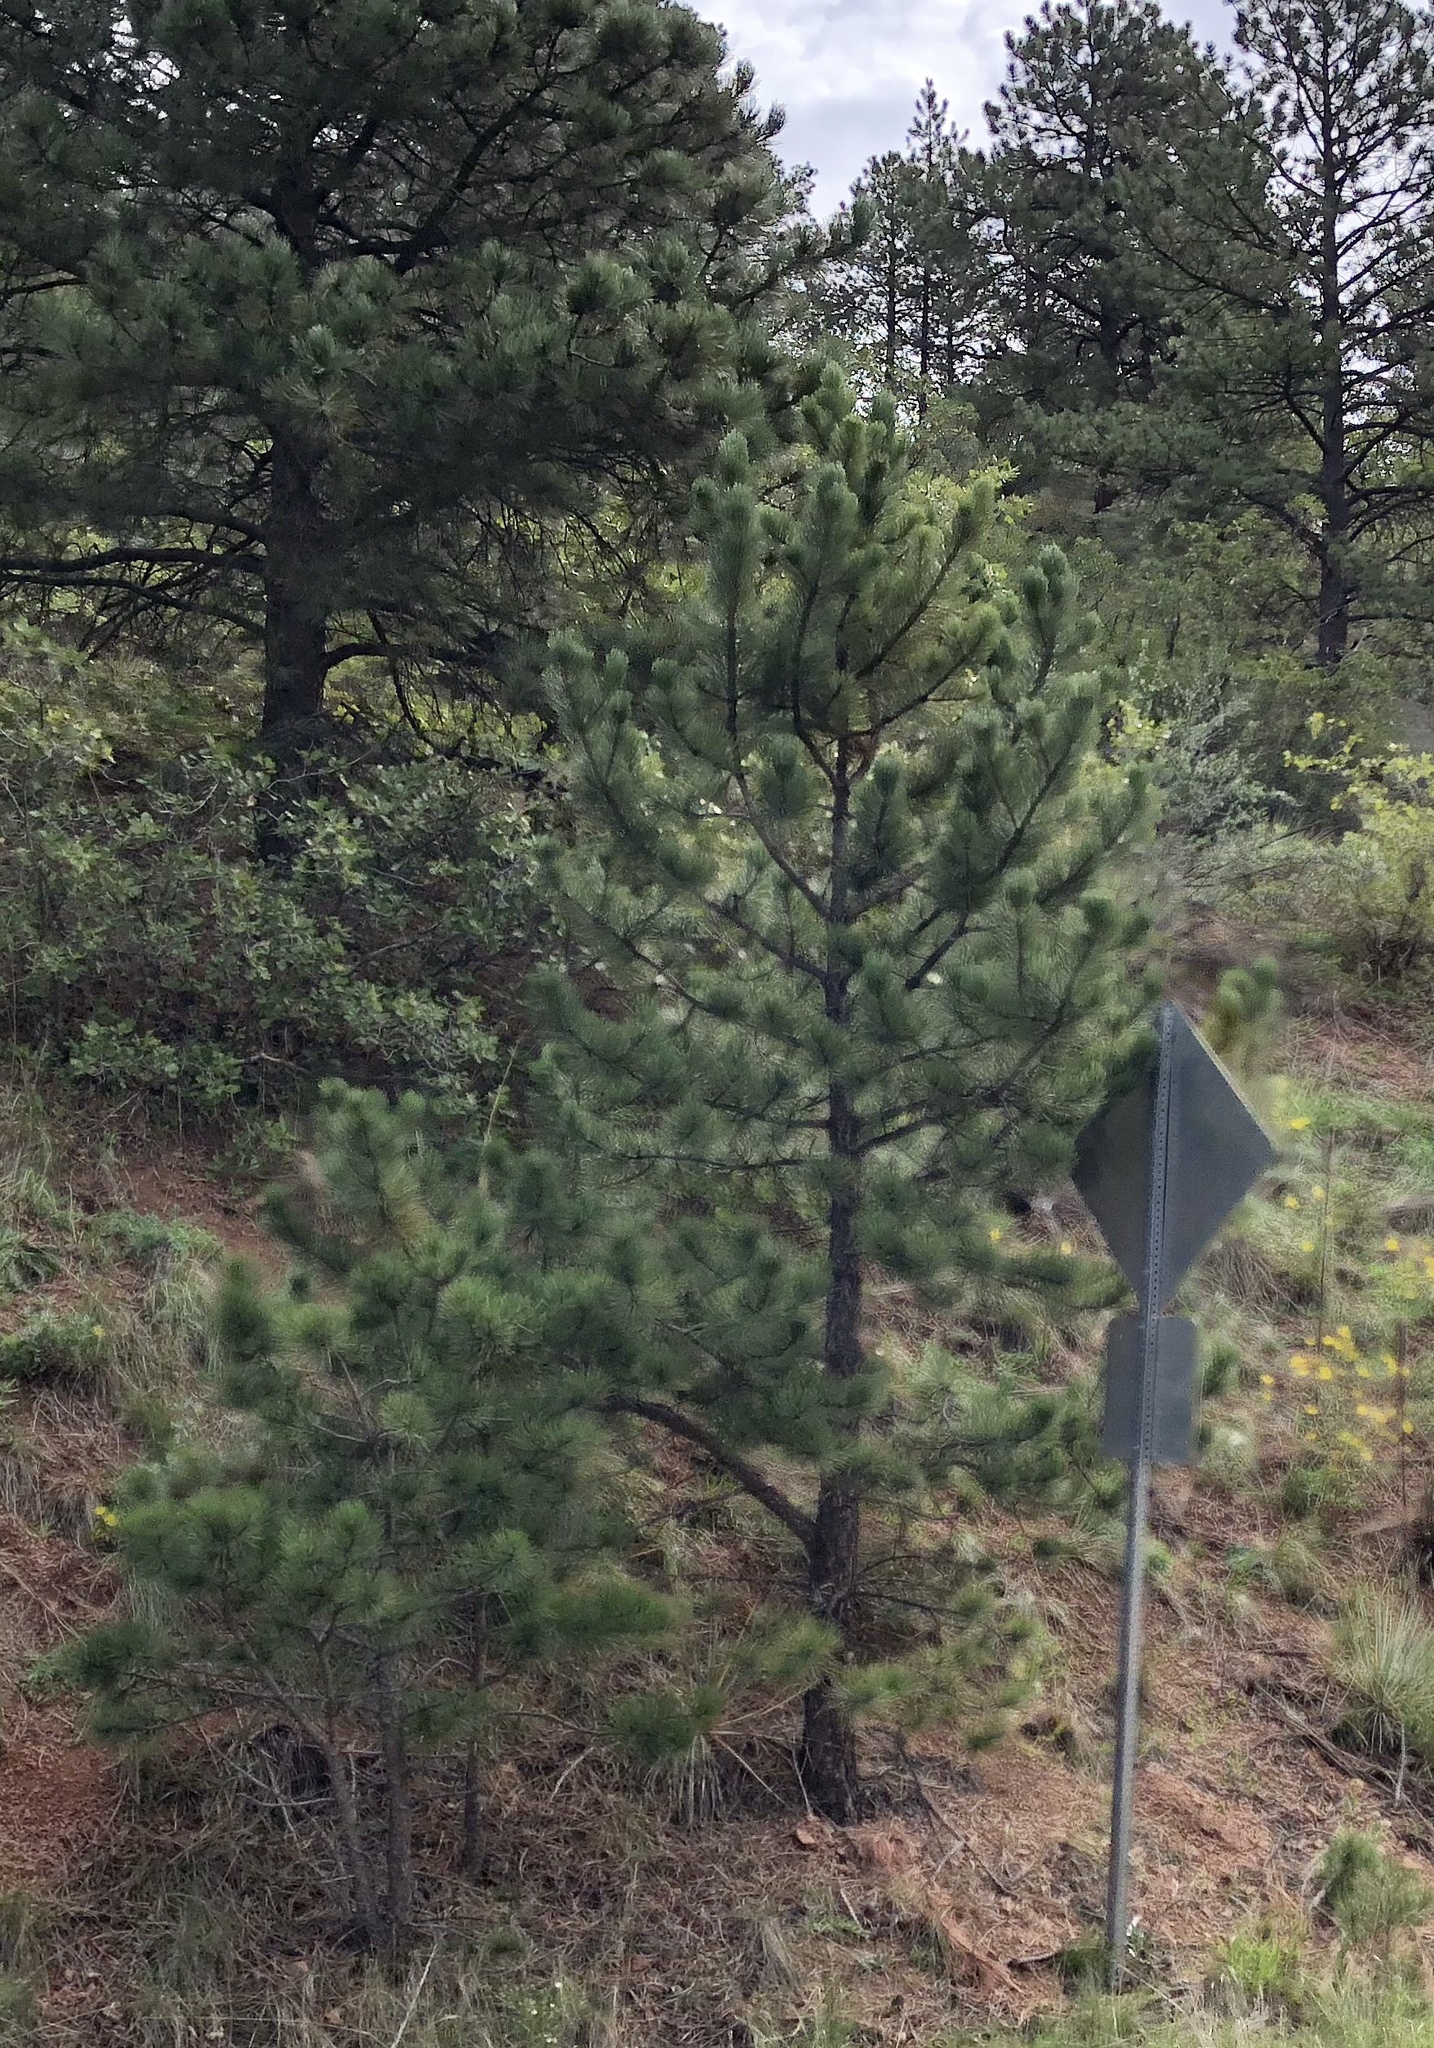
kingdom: Plantae
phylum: Tracheophyta
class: Pinopsida
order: Pinales
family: Pinaceae
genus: Pinus
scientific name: Pinus ponderosa
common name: Western yellow-pine
